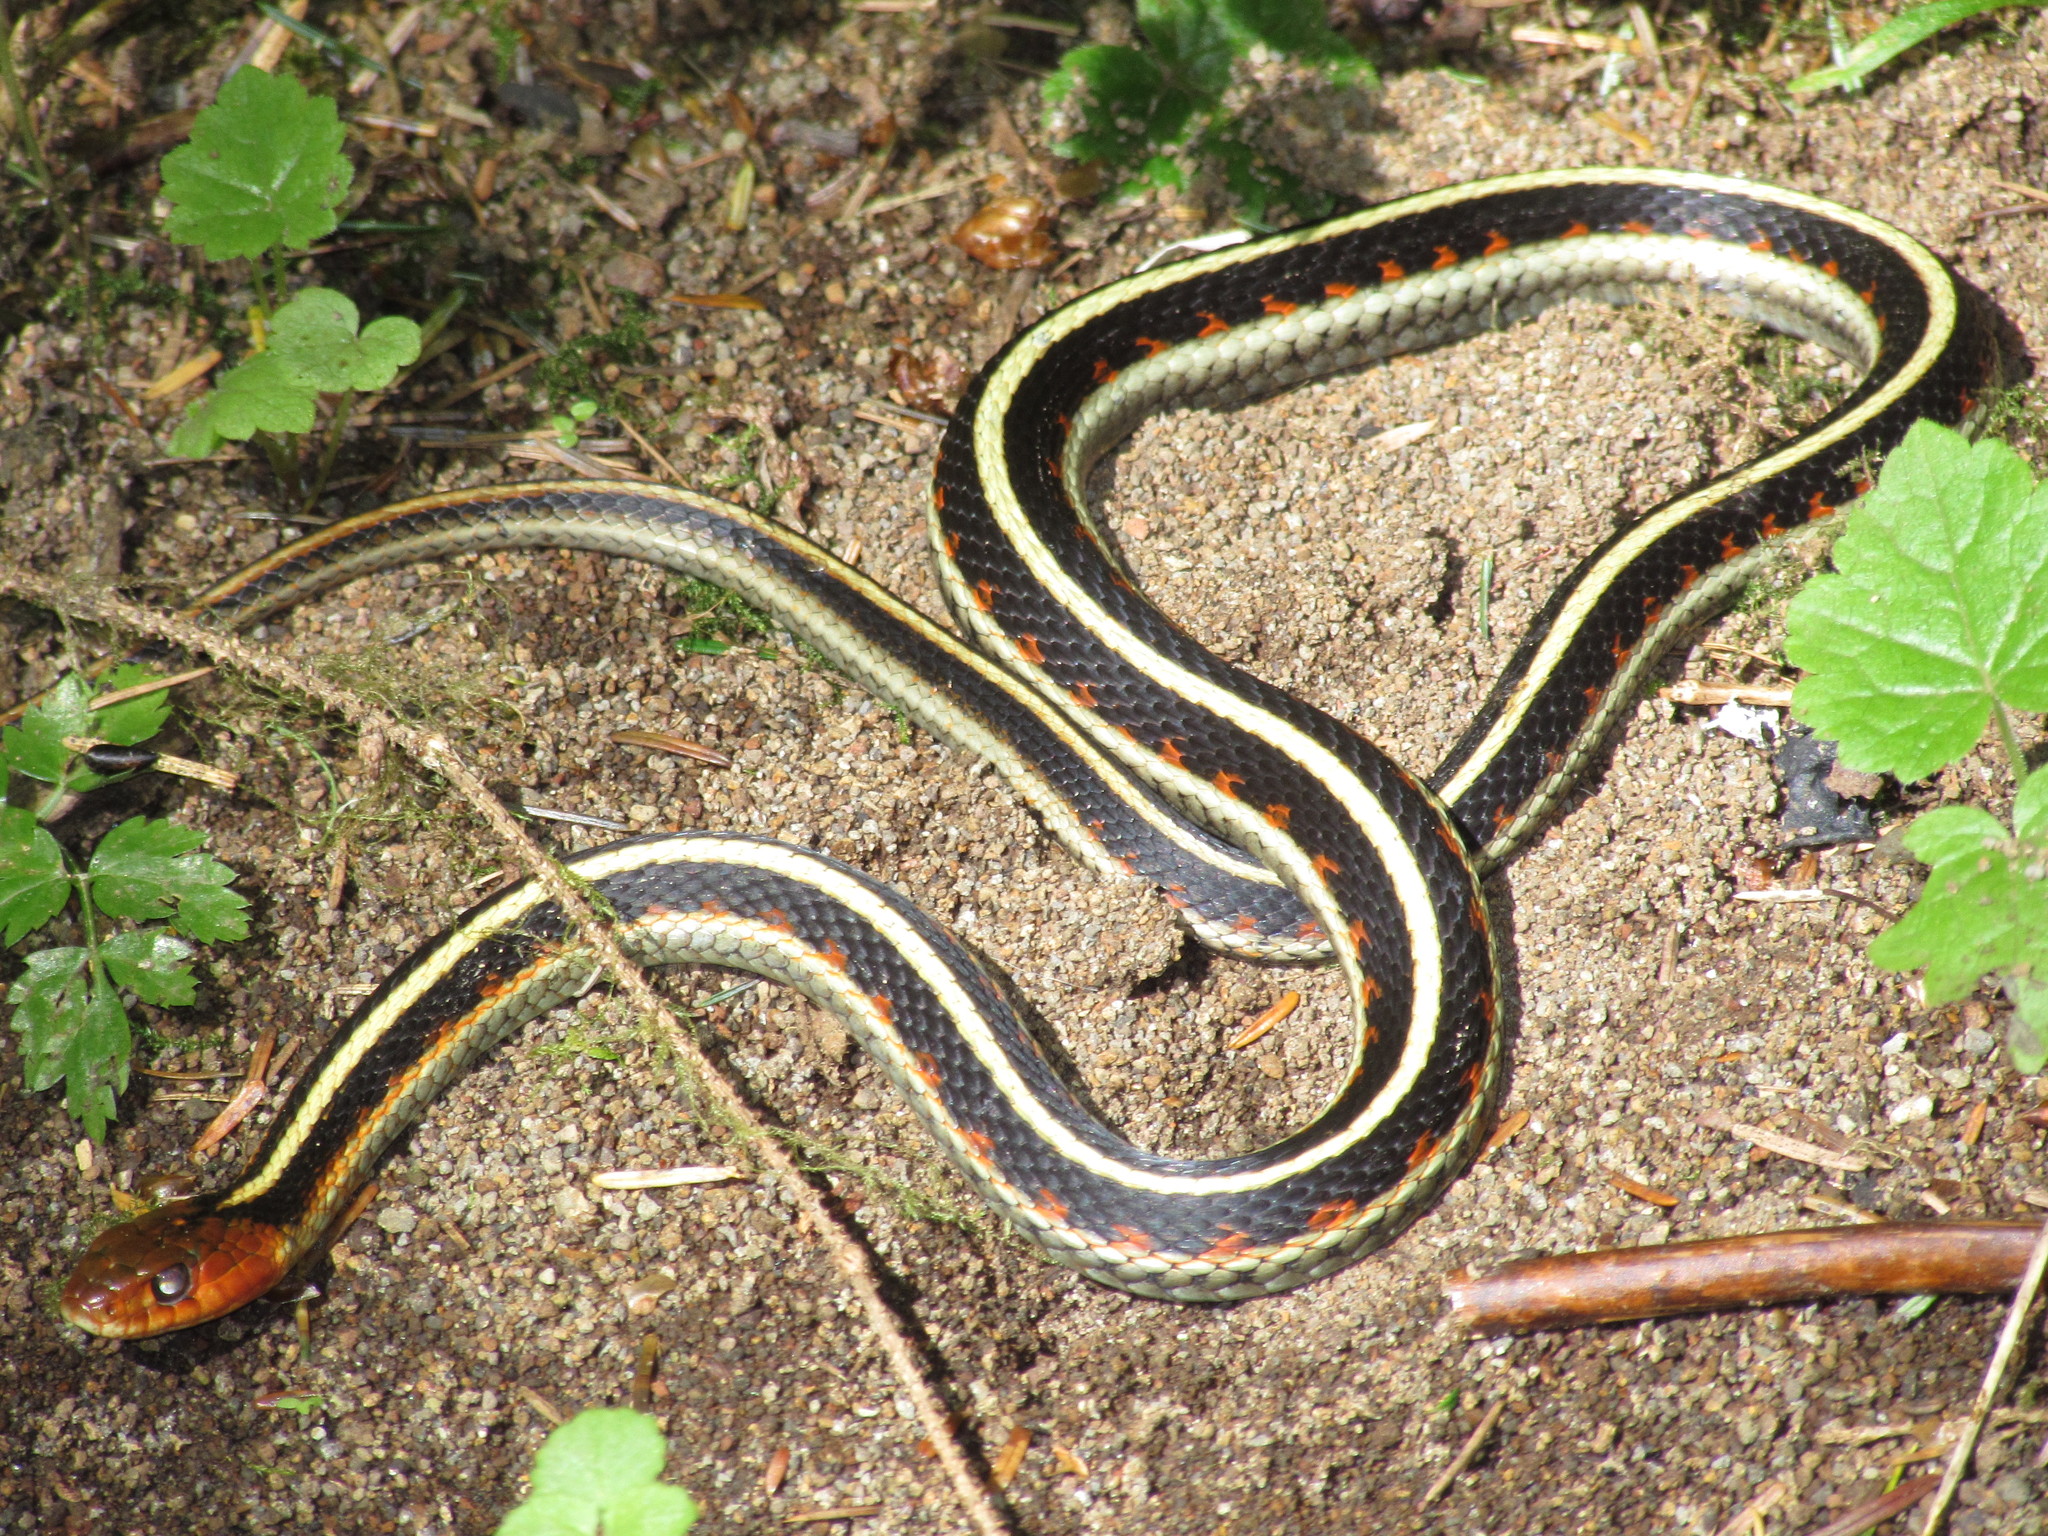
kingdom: Animalia
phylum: Chordata
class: Squamata
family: Colubridae
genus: Thamnophis
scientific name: Thamnophis sirtalis
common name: Common garter snake
